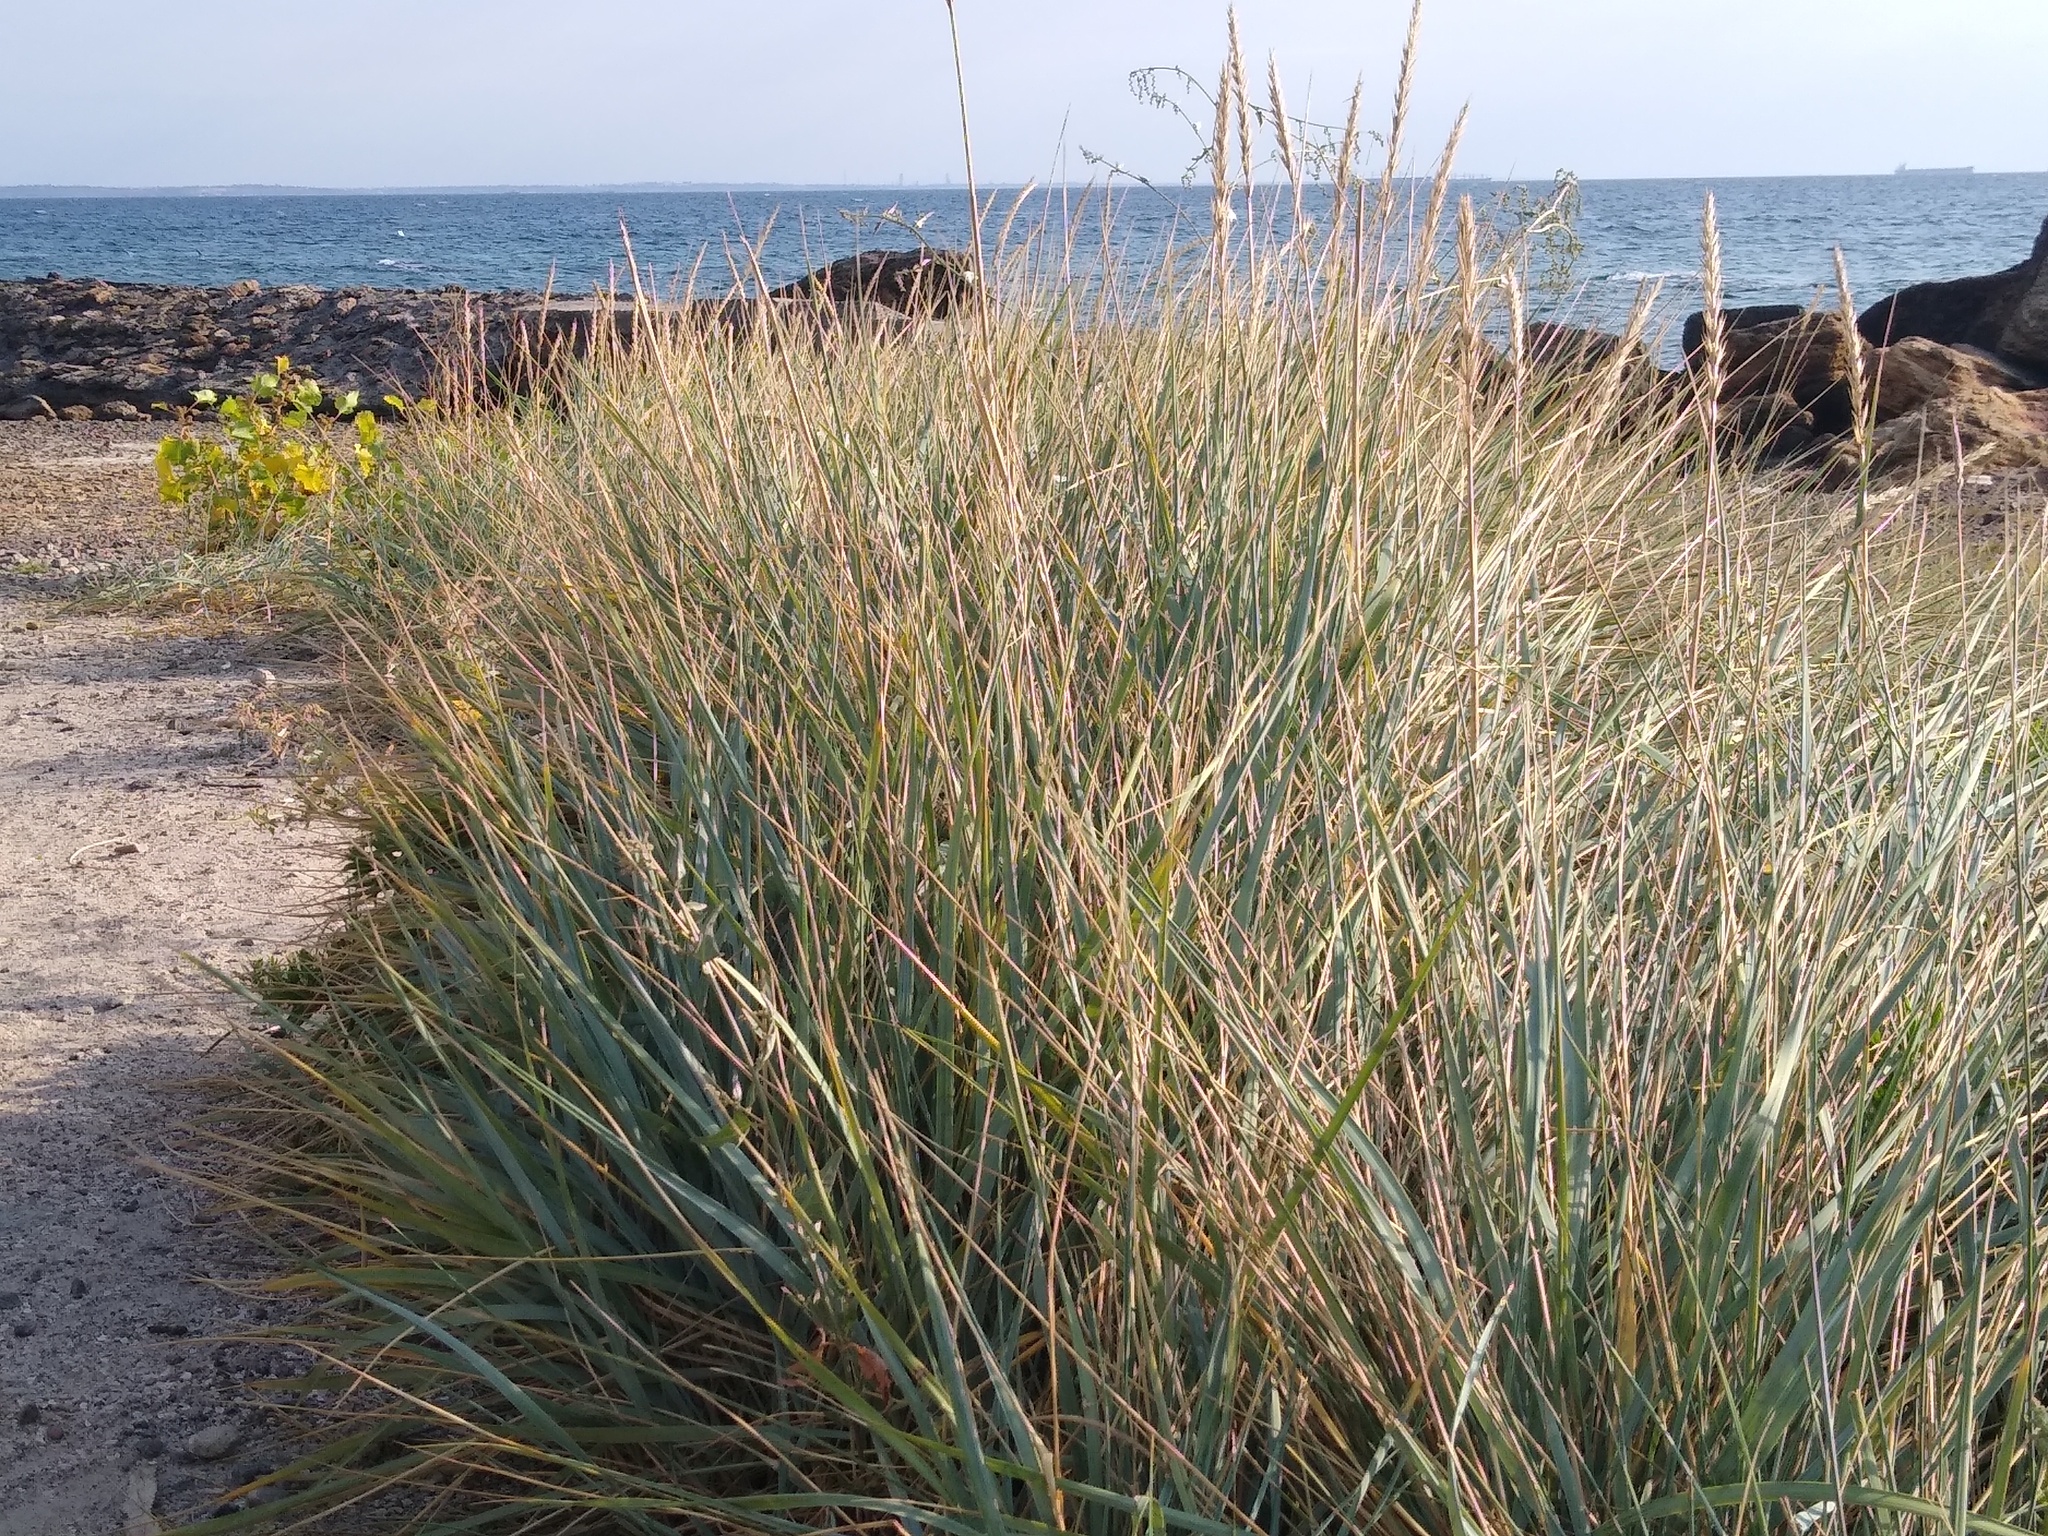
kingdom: Plantae
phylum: Tracheophyta
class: Liliopsida
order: Poales
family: Poaceae
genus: Leymus
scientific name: Leymus racemosus
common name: Mammoth wildrye
